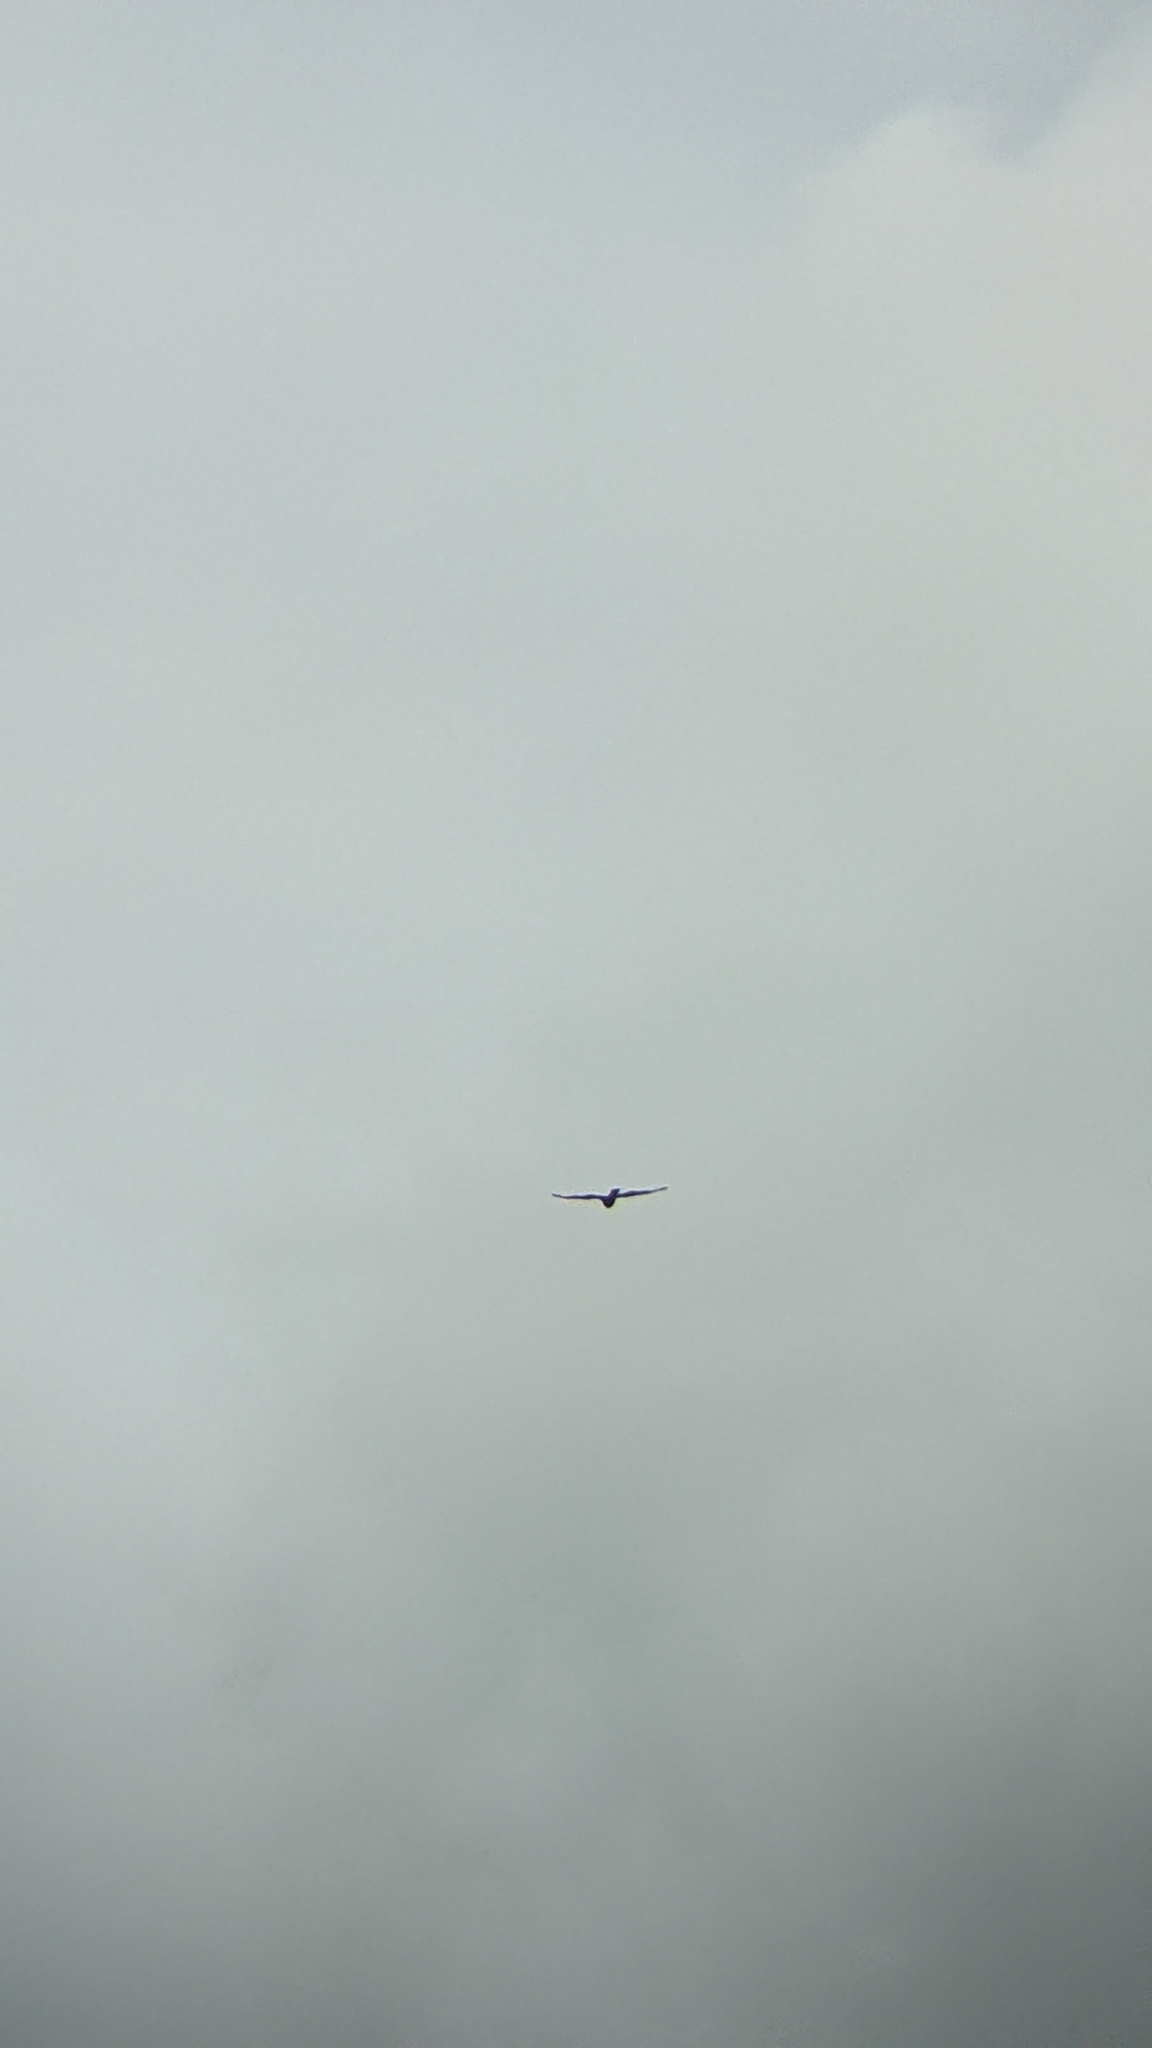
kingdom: Animalia
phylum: Chordata
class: Aves
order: Accipitriformes
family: Accipitridae
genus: Circus
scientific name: Circus approximans
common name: Swamp harrier
